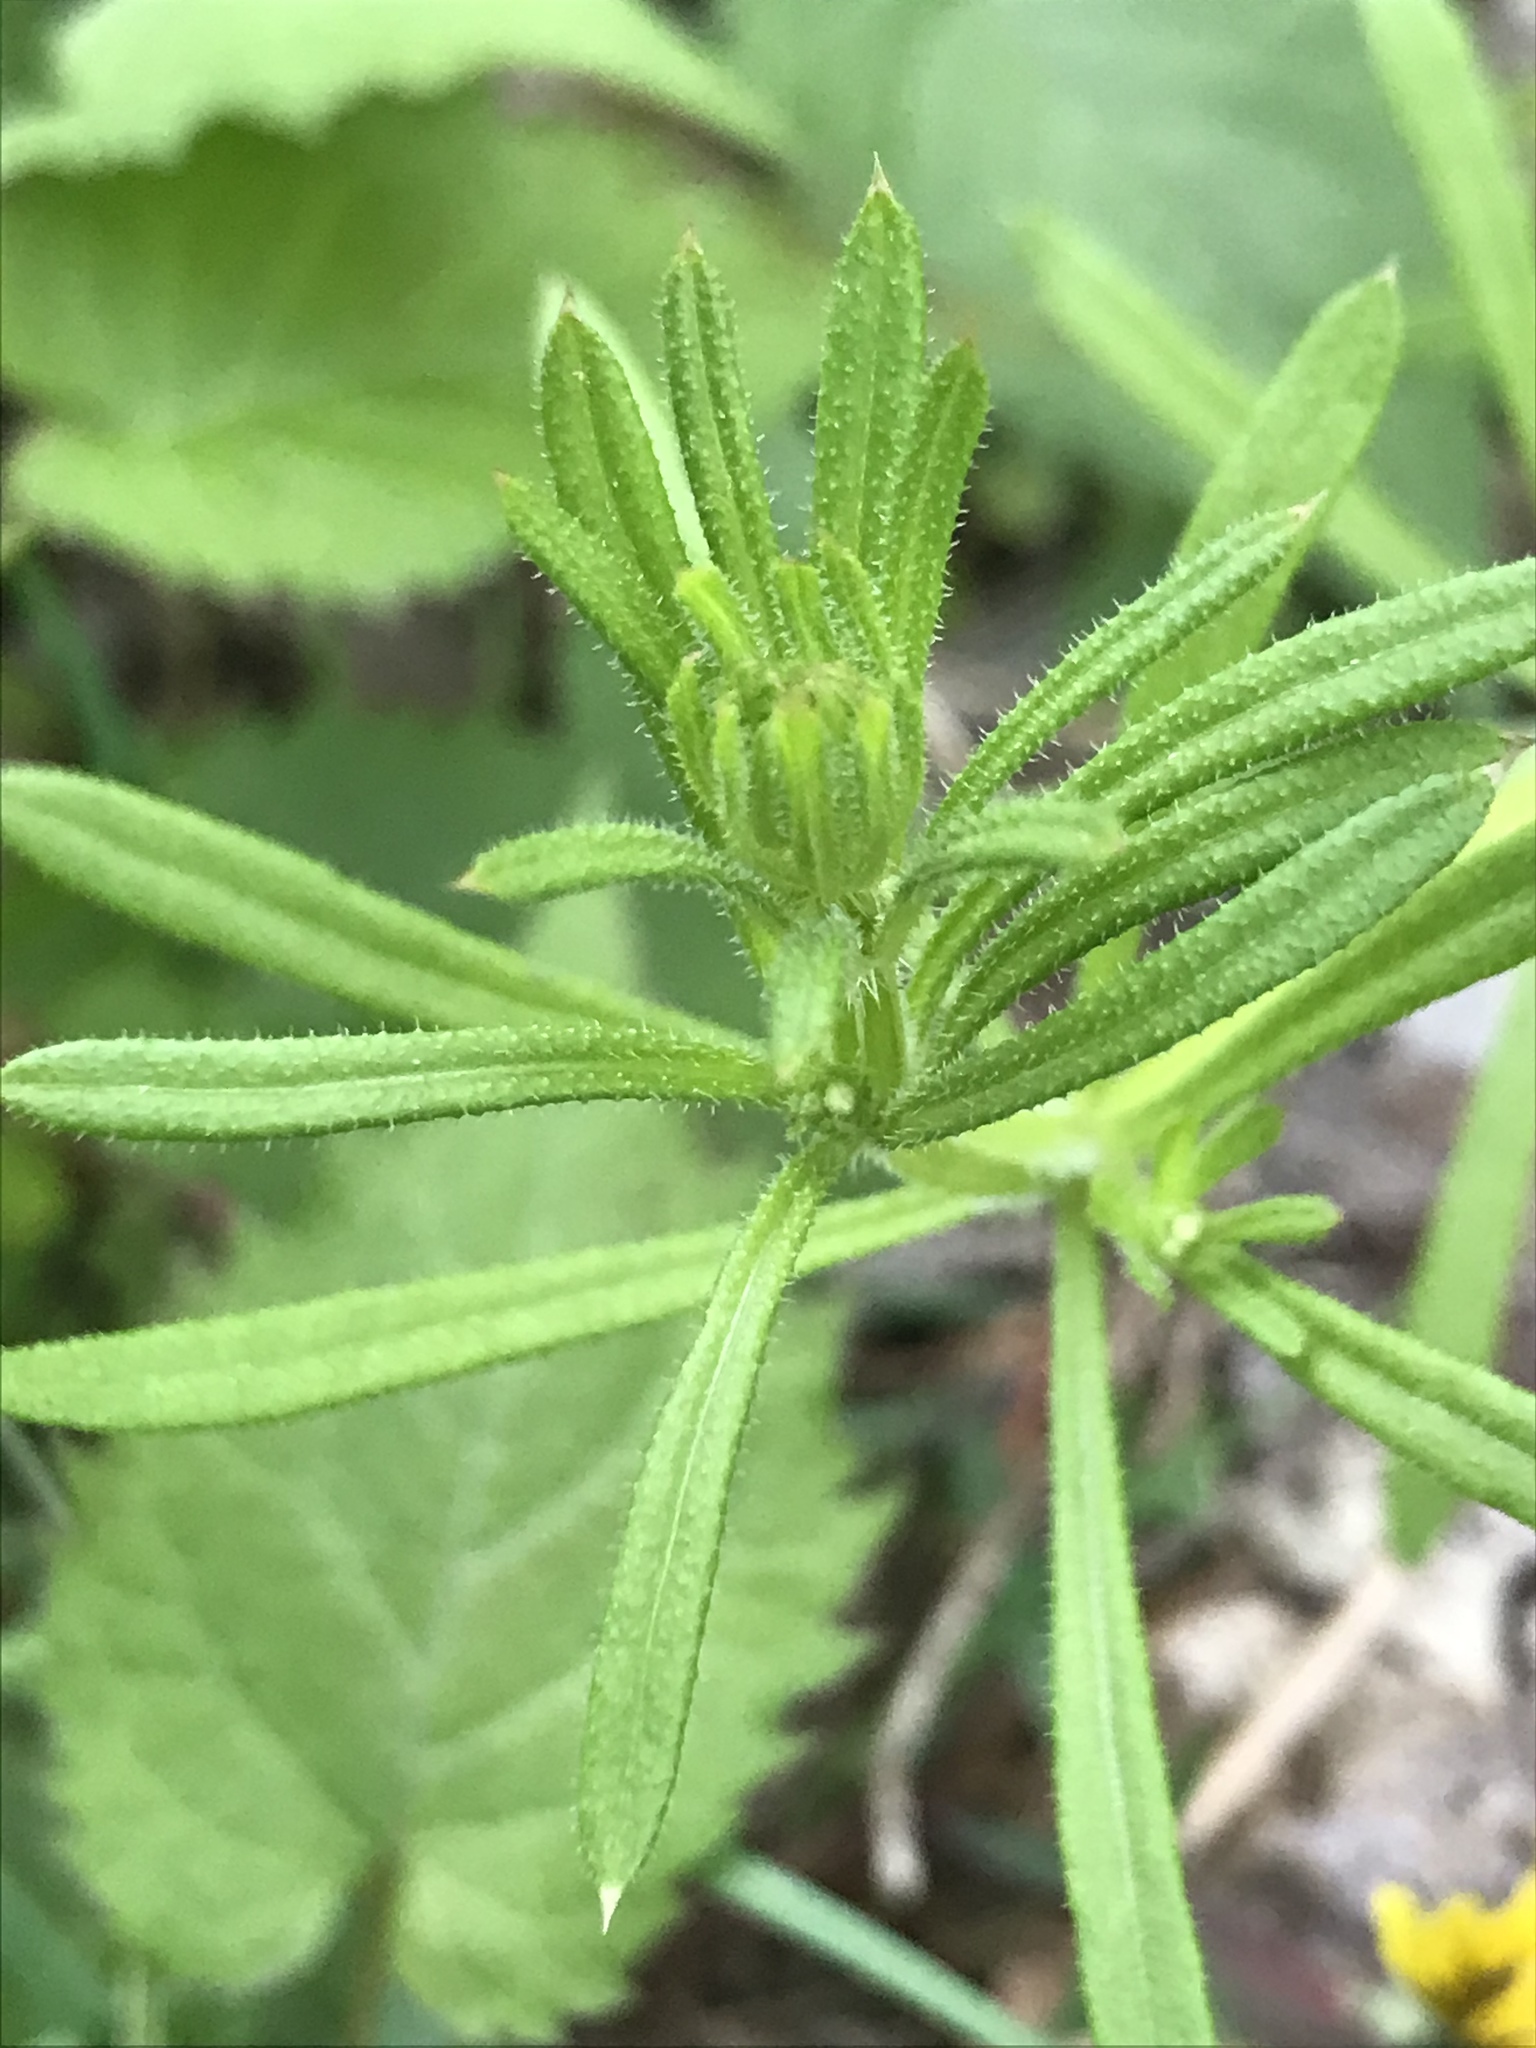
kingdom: Plantae
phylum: Tracheophyta
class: Magnoliopsida
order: Gentianales
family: Rubiaceae
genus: Galium
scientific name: Galium aparine
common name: Cleavers
